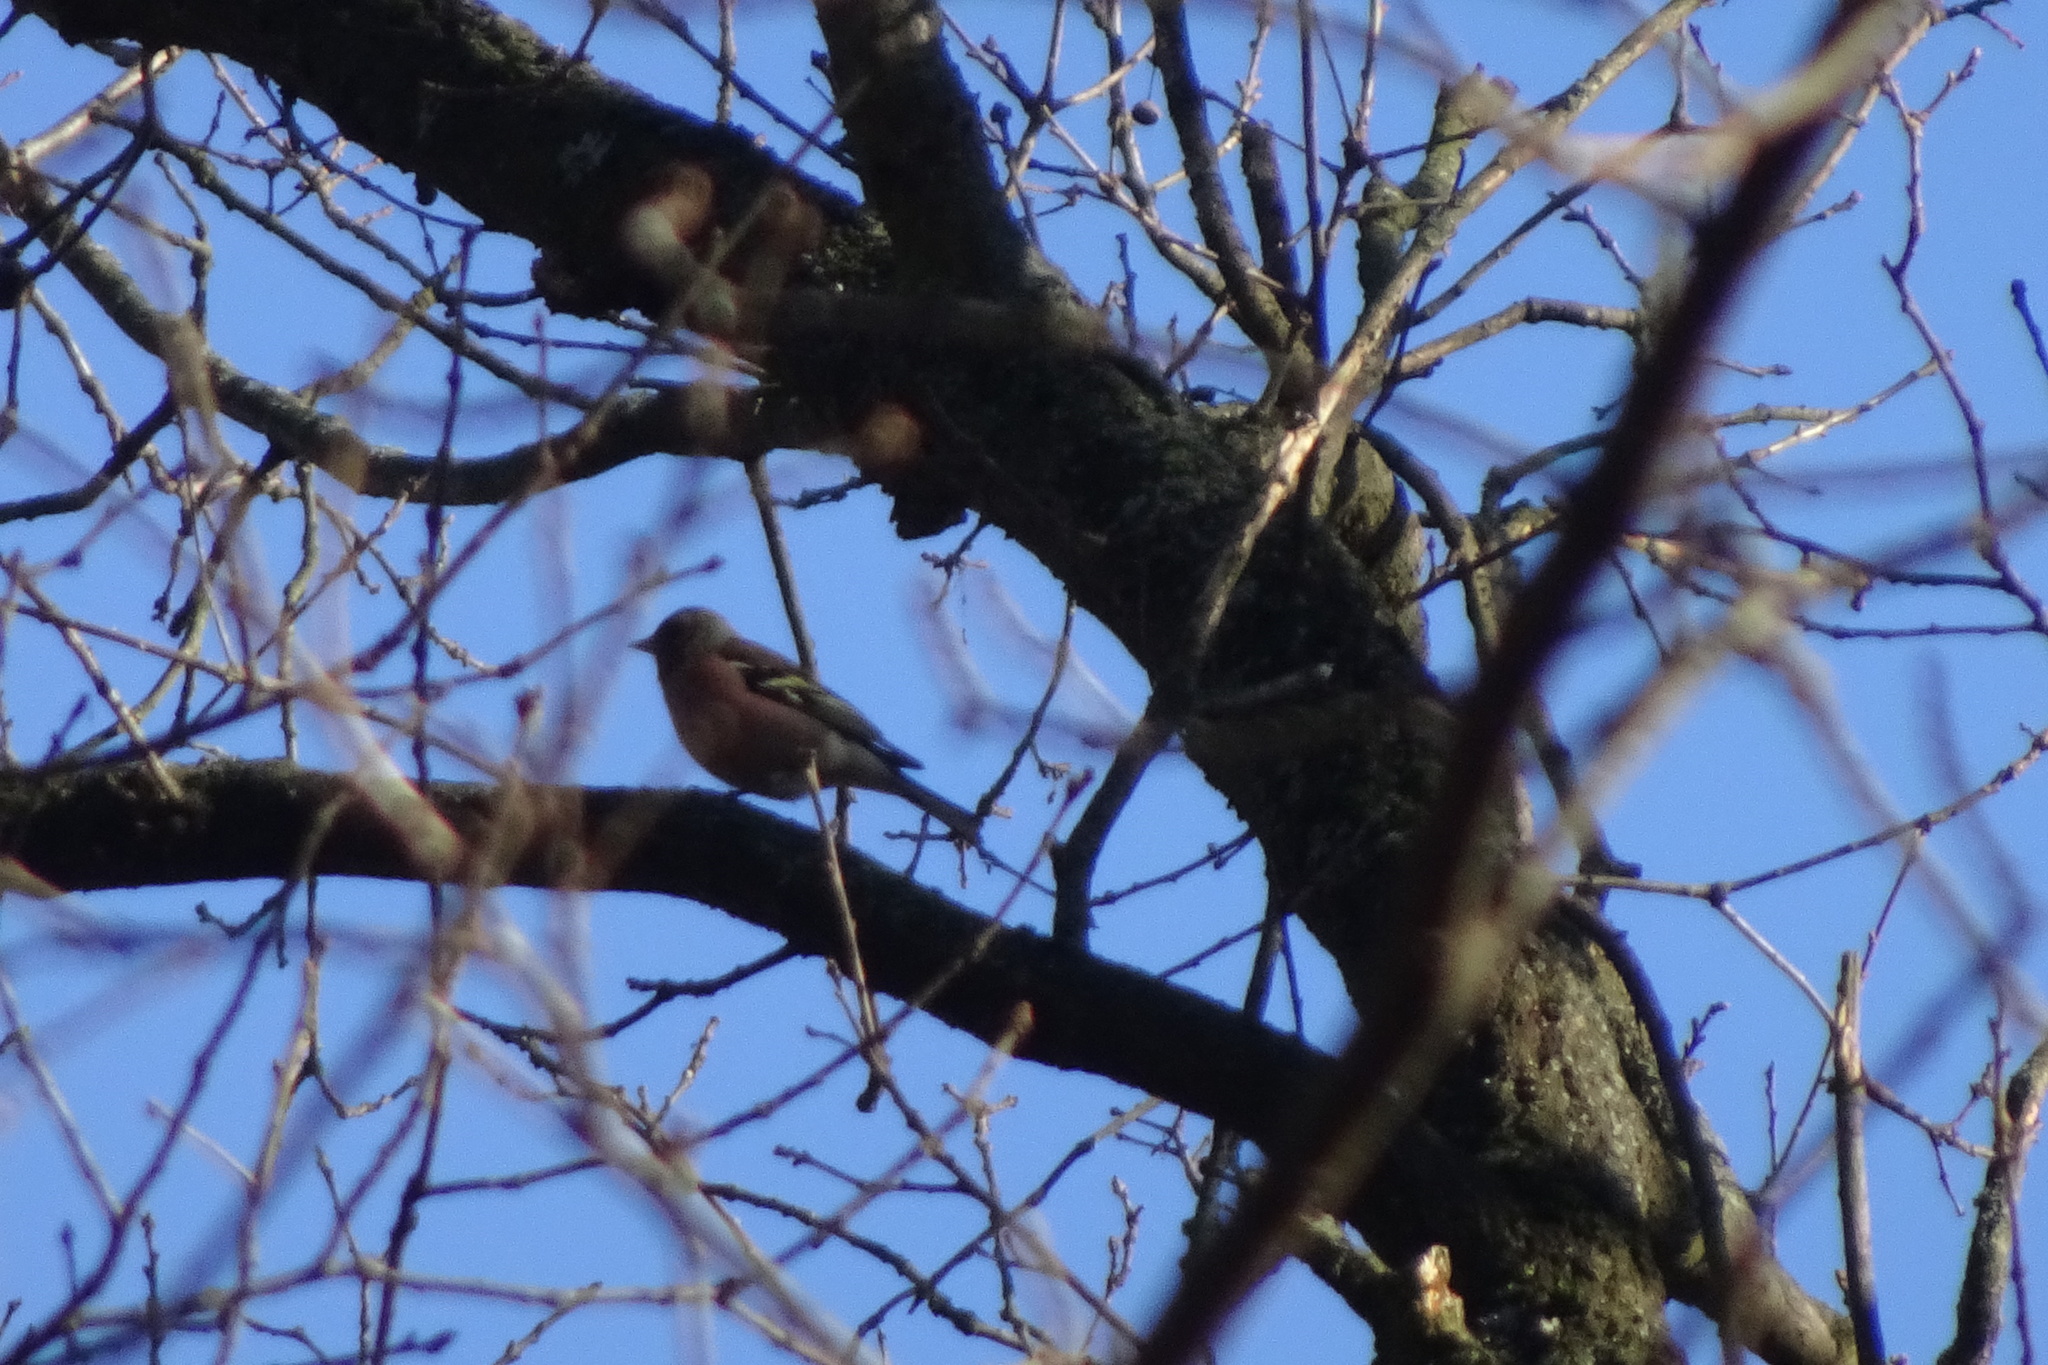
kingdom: Animalia
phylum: Chordata
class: Aves
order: Passeriformes
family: Fringillidae
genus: Fringilla
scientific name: Fringilla coelebs
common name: Common chaffinch
